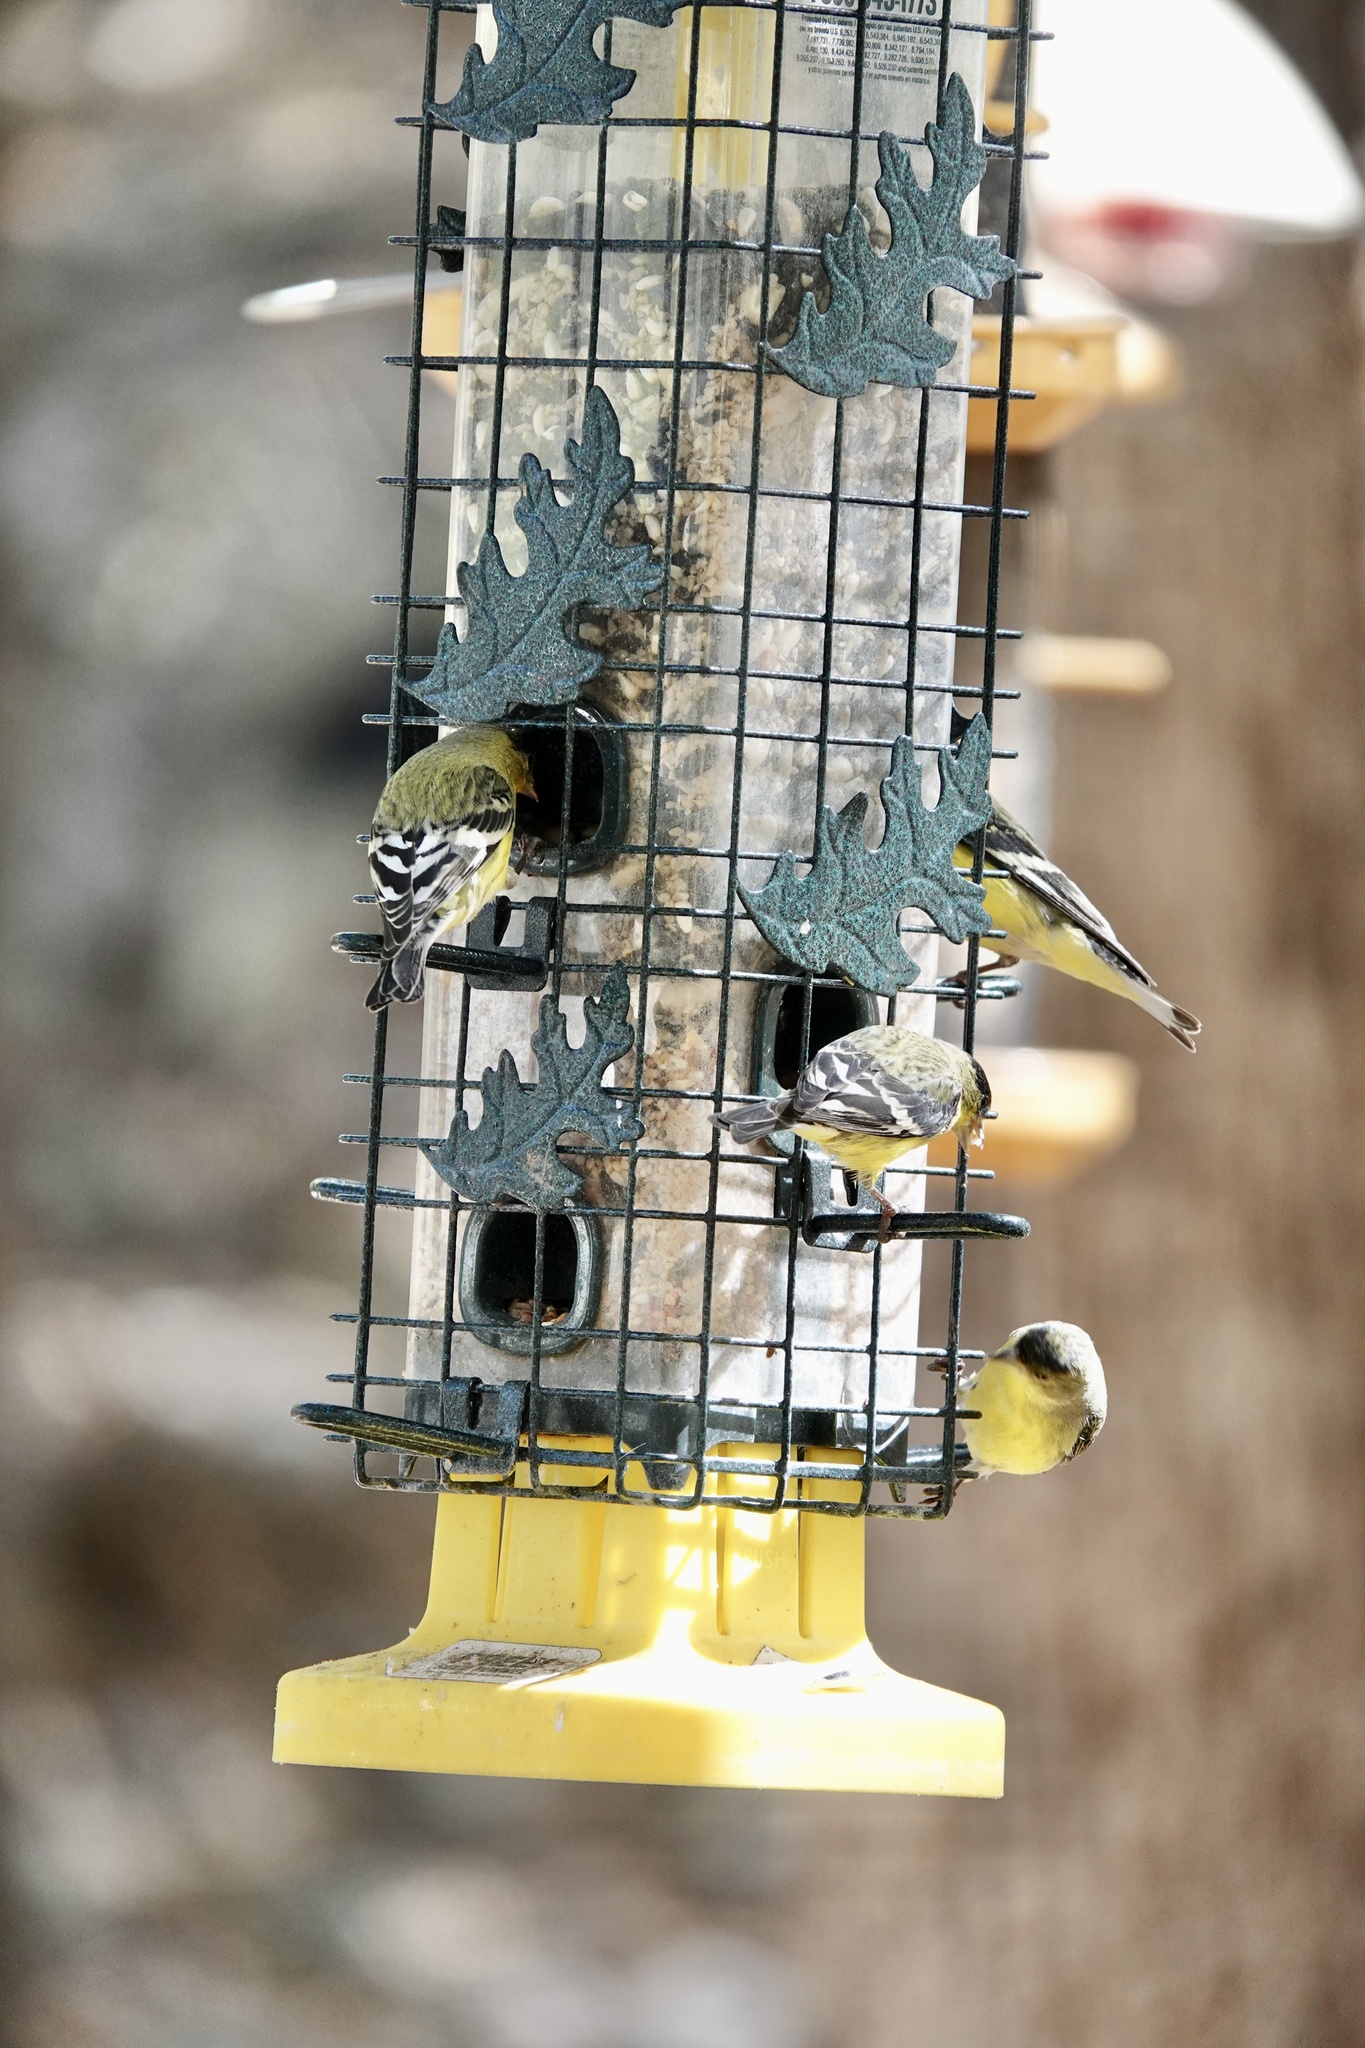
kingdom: Animalia
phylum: Chordata
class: Aves
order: Passeriformes
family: Fringillidae
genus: Spinus
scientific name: Spinus psaltria
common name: Lesser goldfinch
